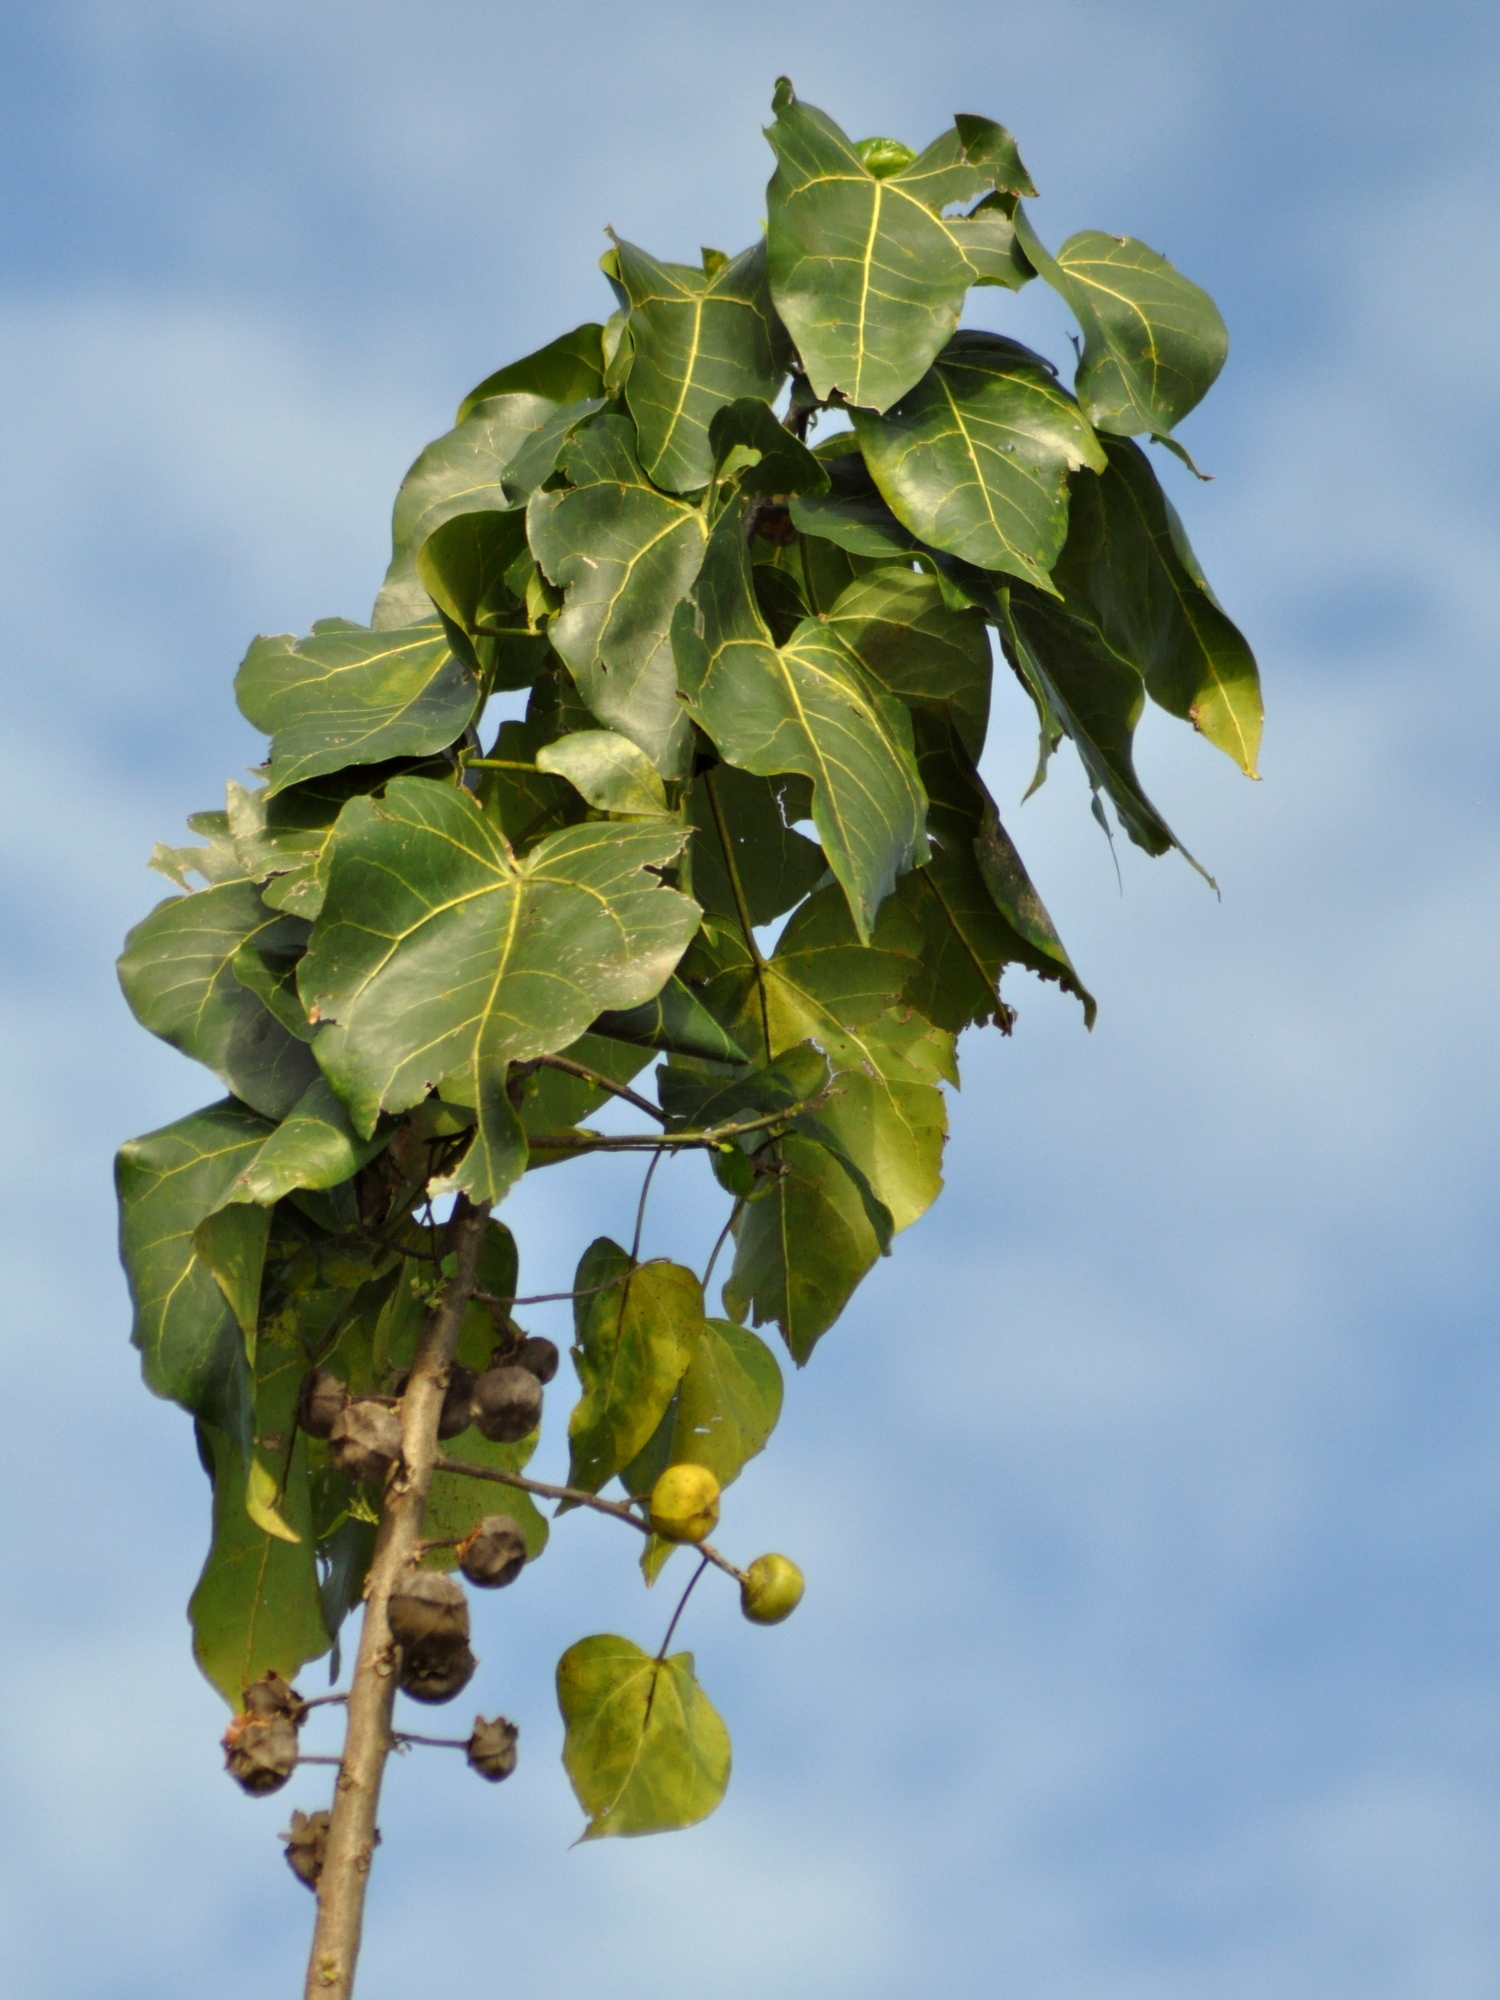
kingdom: Plantae
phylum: Tracheophyta
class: Magnoliopsida
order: Malvales
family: Malvaceae
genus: Thespesia
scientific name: Thespesia populnea
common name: Seaside mahoe
